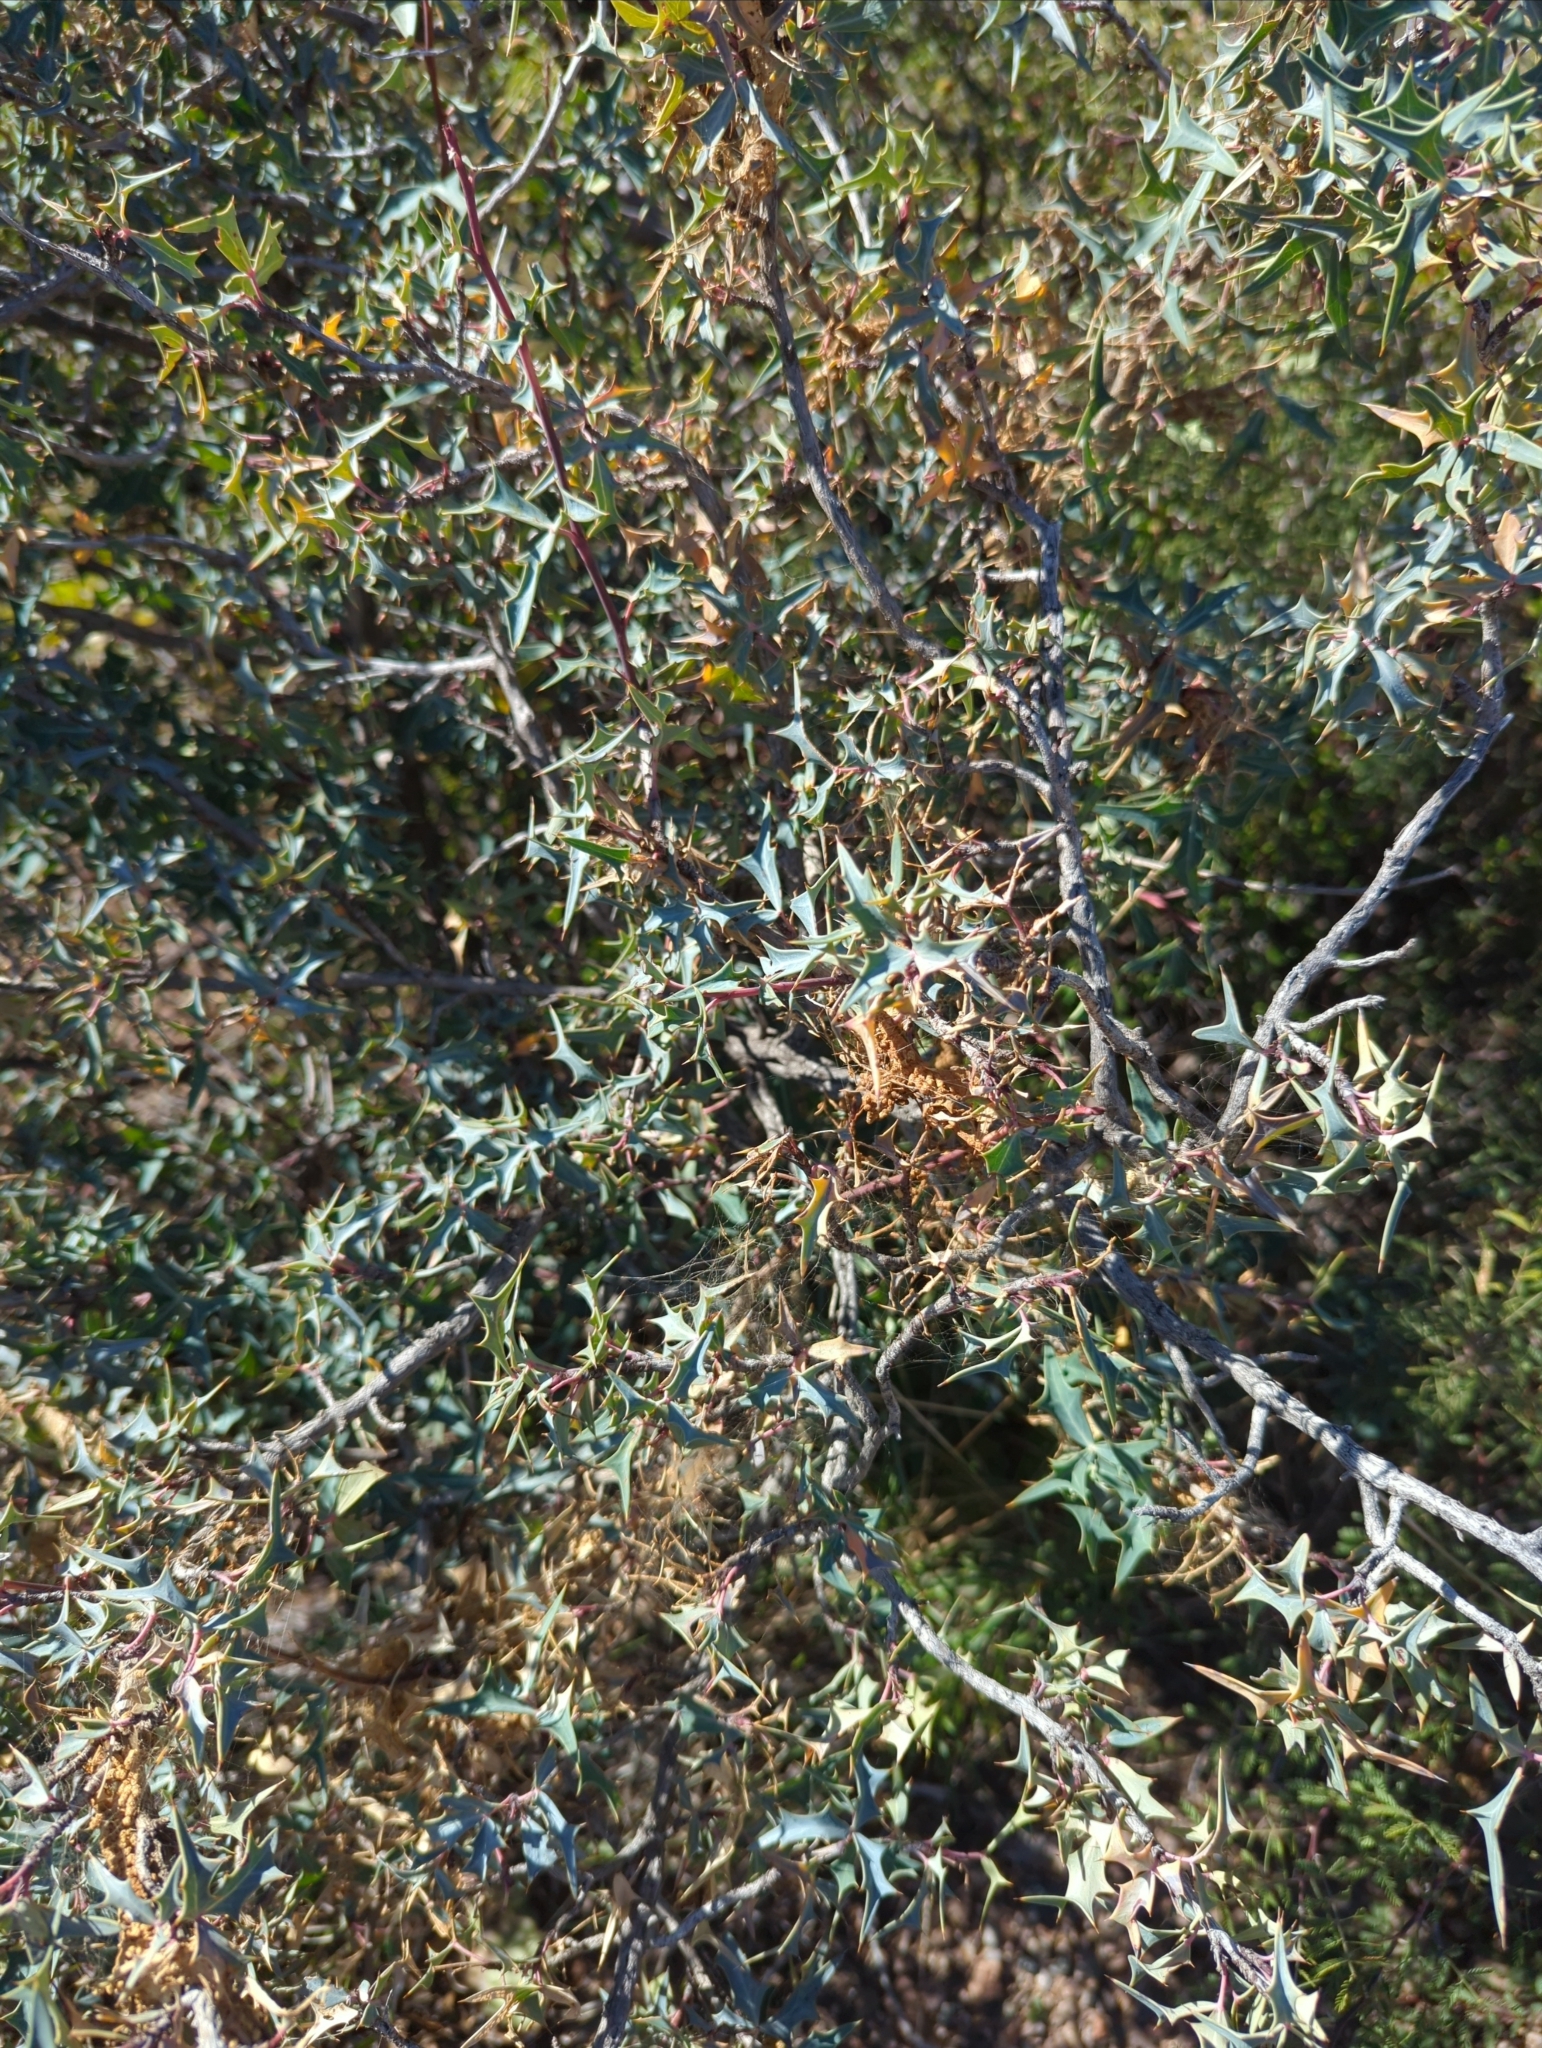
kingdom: Plantae
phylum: Tracheophyta
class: Magnoliopsida
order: Ranunculales
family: Berberidaceae
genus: Alloberberis
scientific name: Alloberberis trifoliolata
